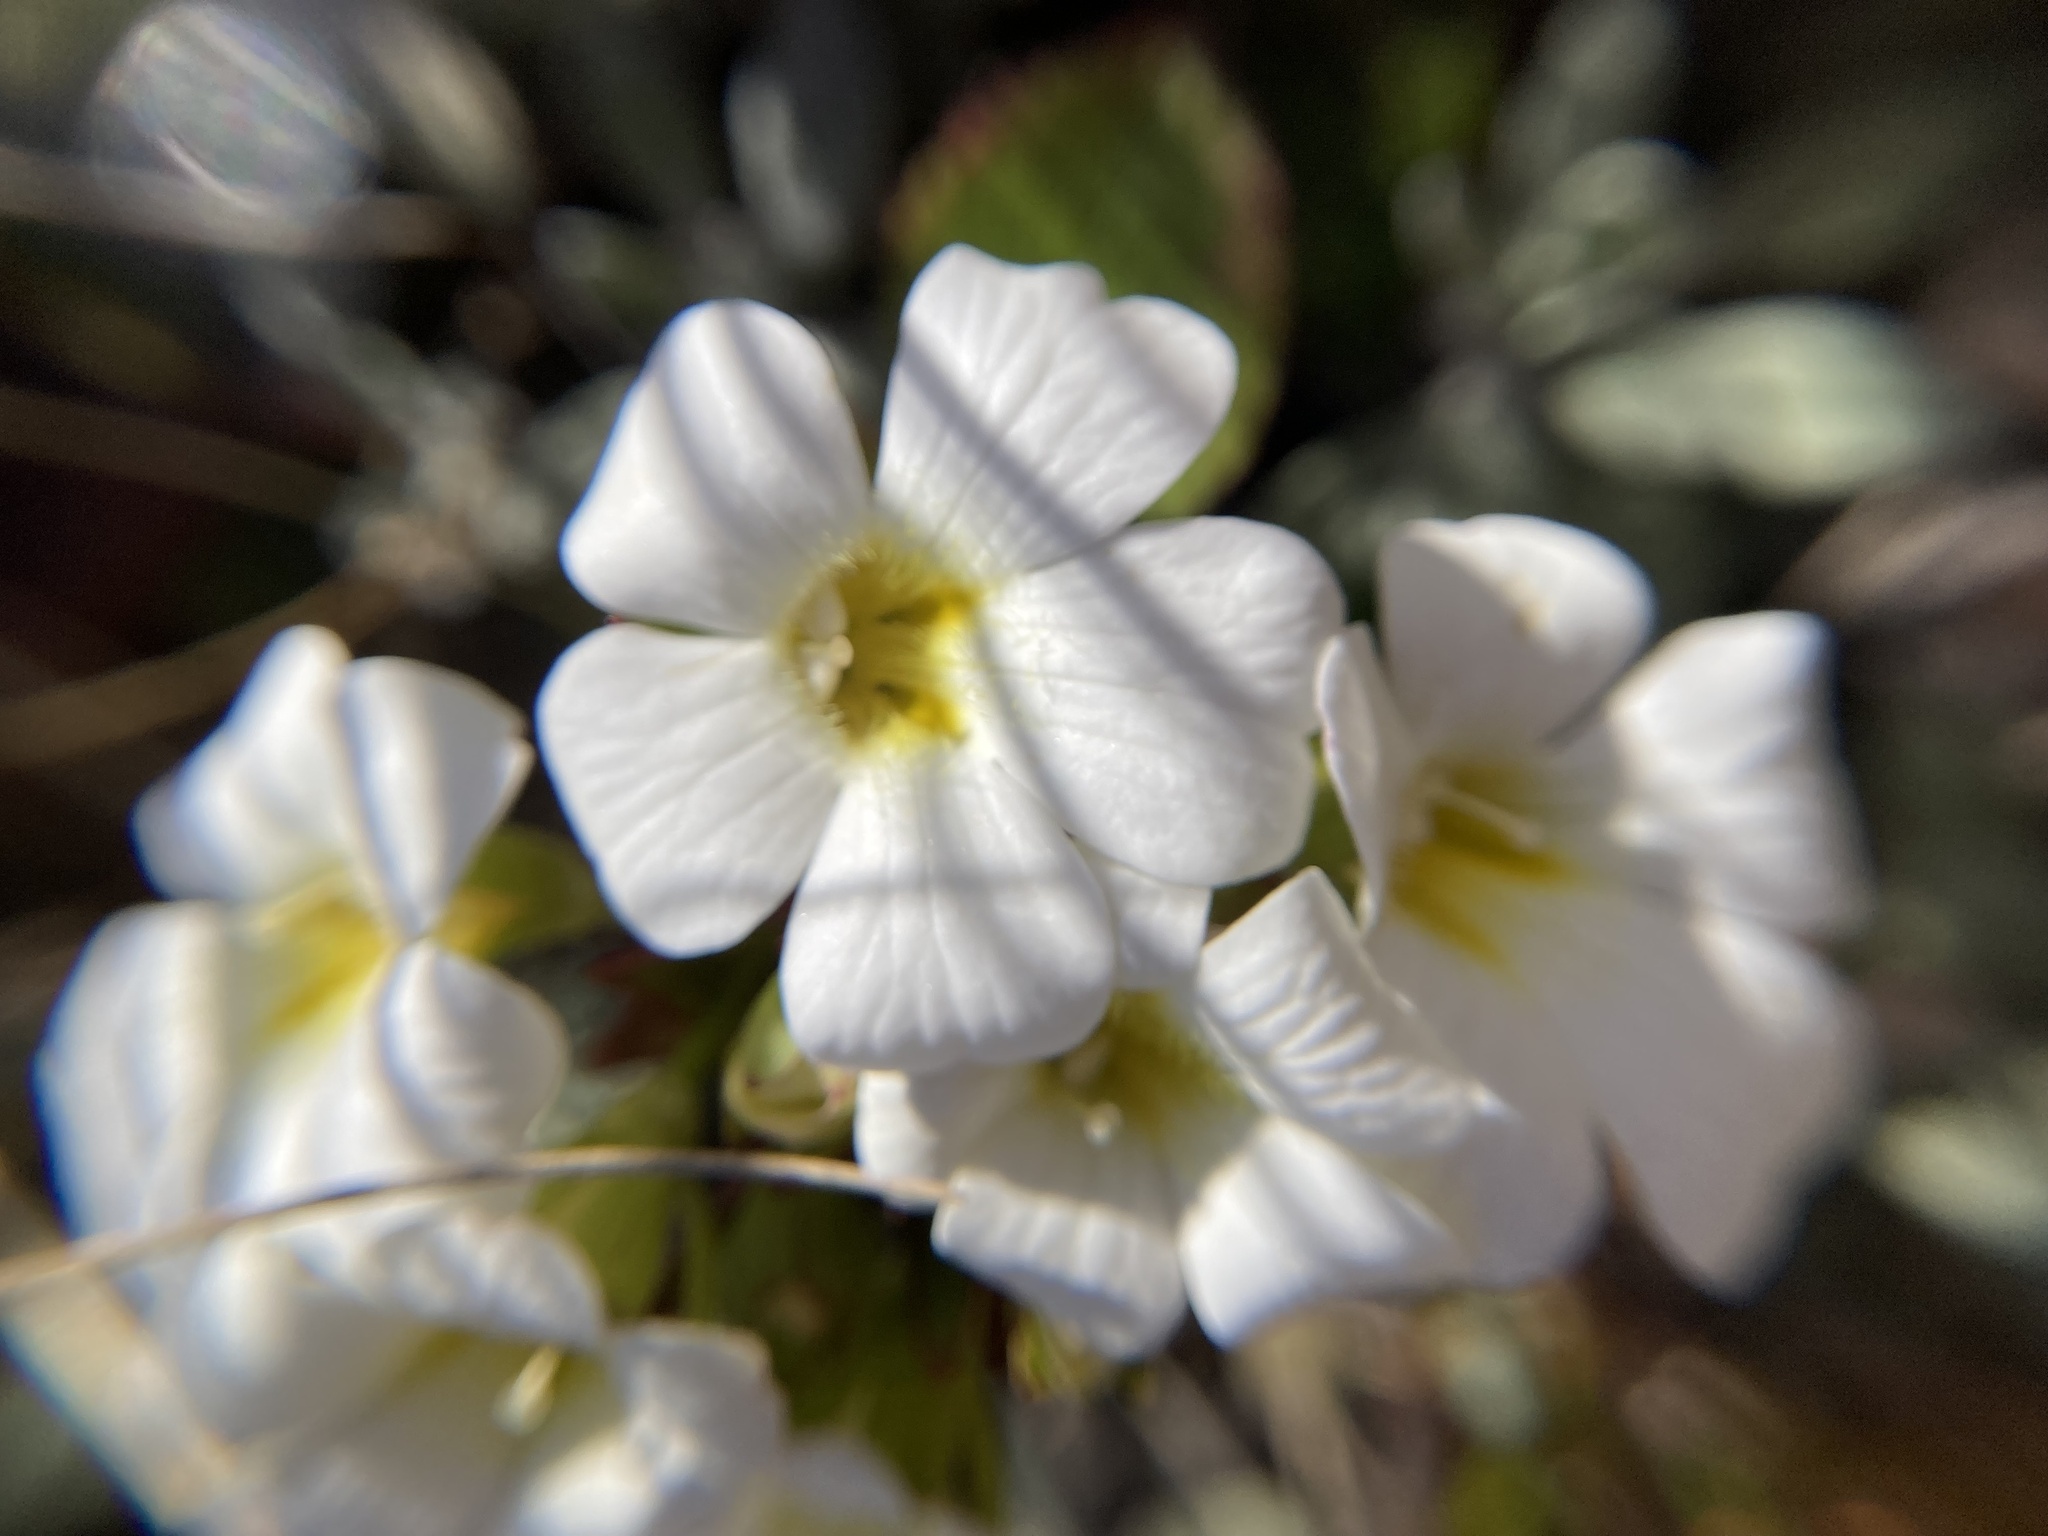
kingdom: Plantae
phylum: Tracheophyta
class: Magnoliopsida
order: Lamiales
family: Plantaginaceae
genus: Ourisia
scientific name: Ourisia calycina
